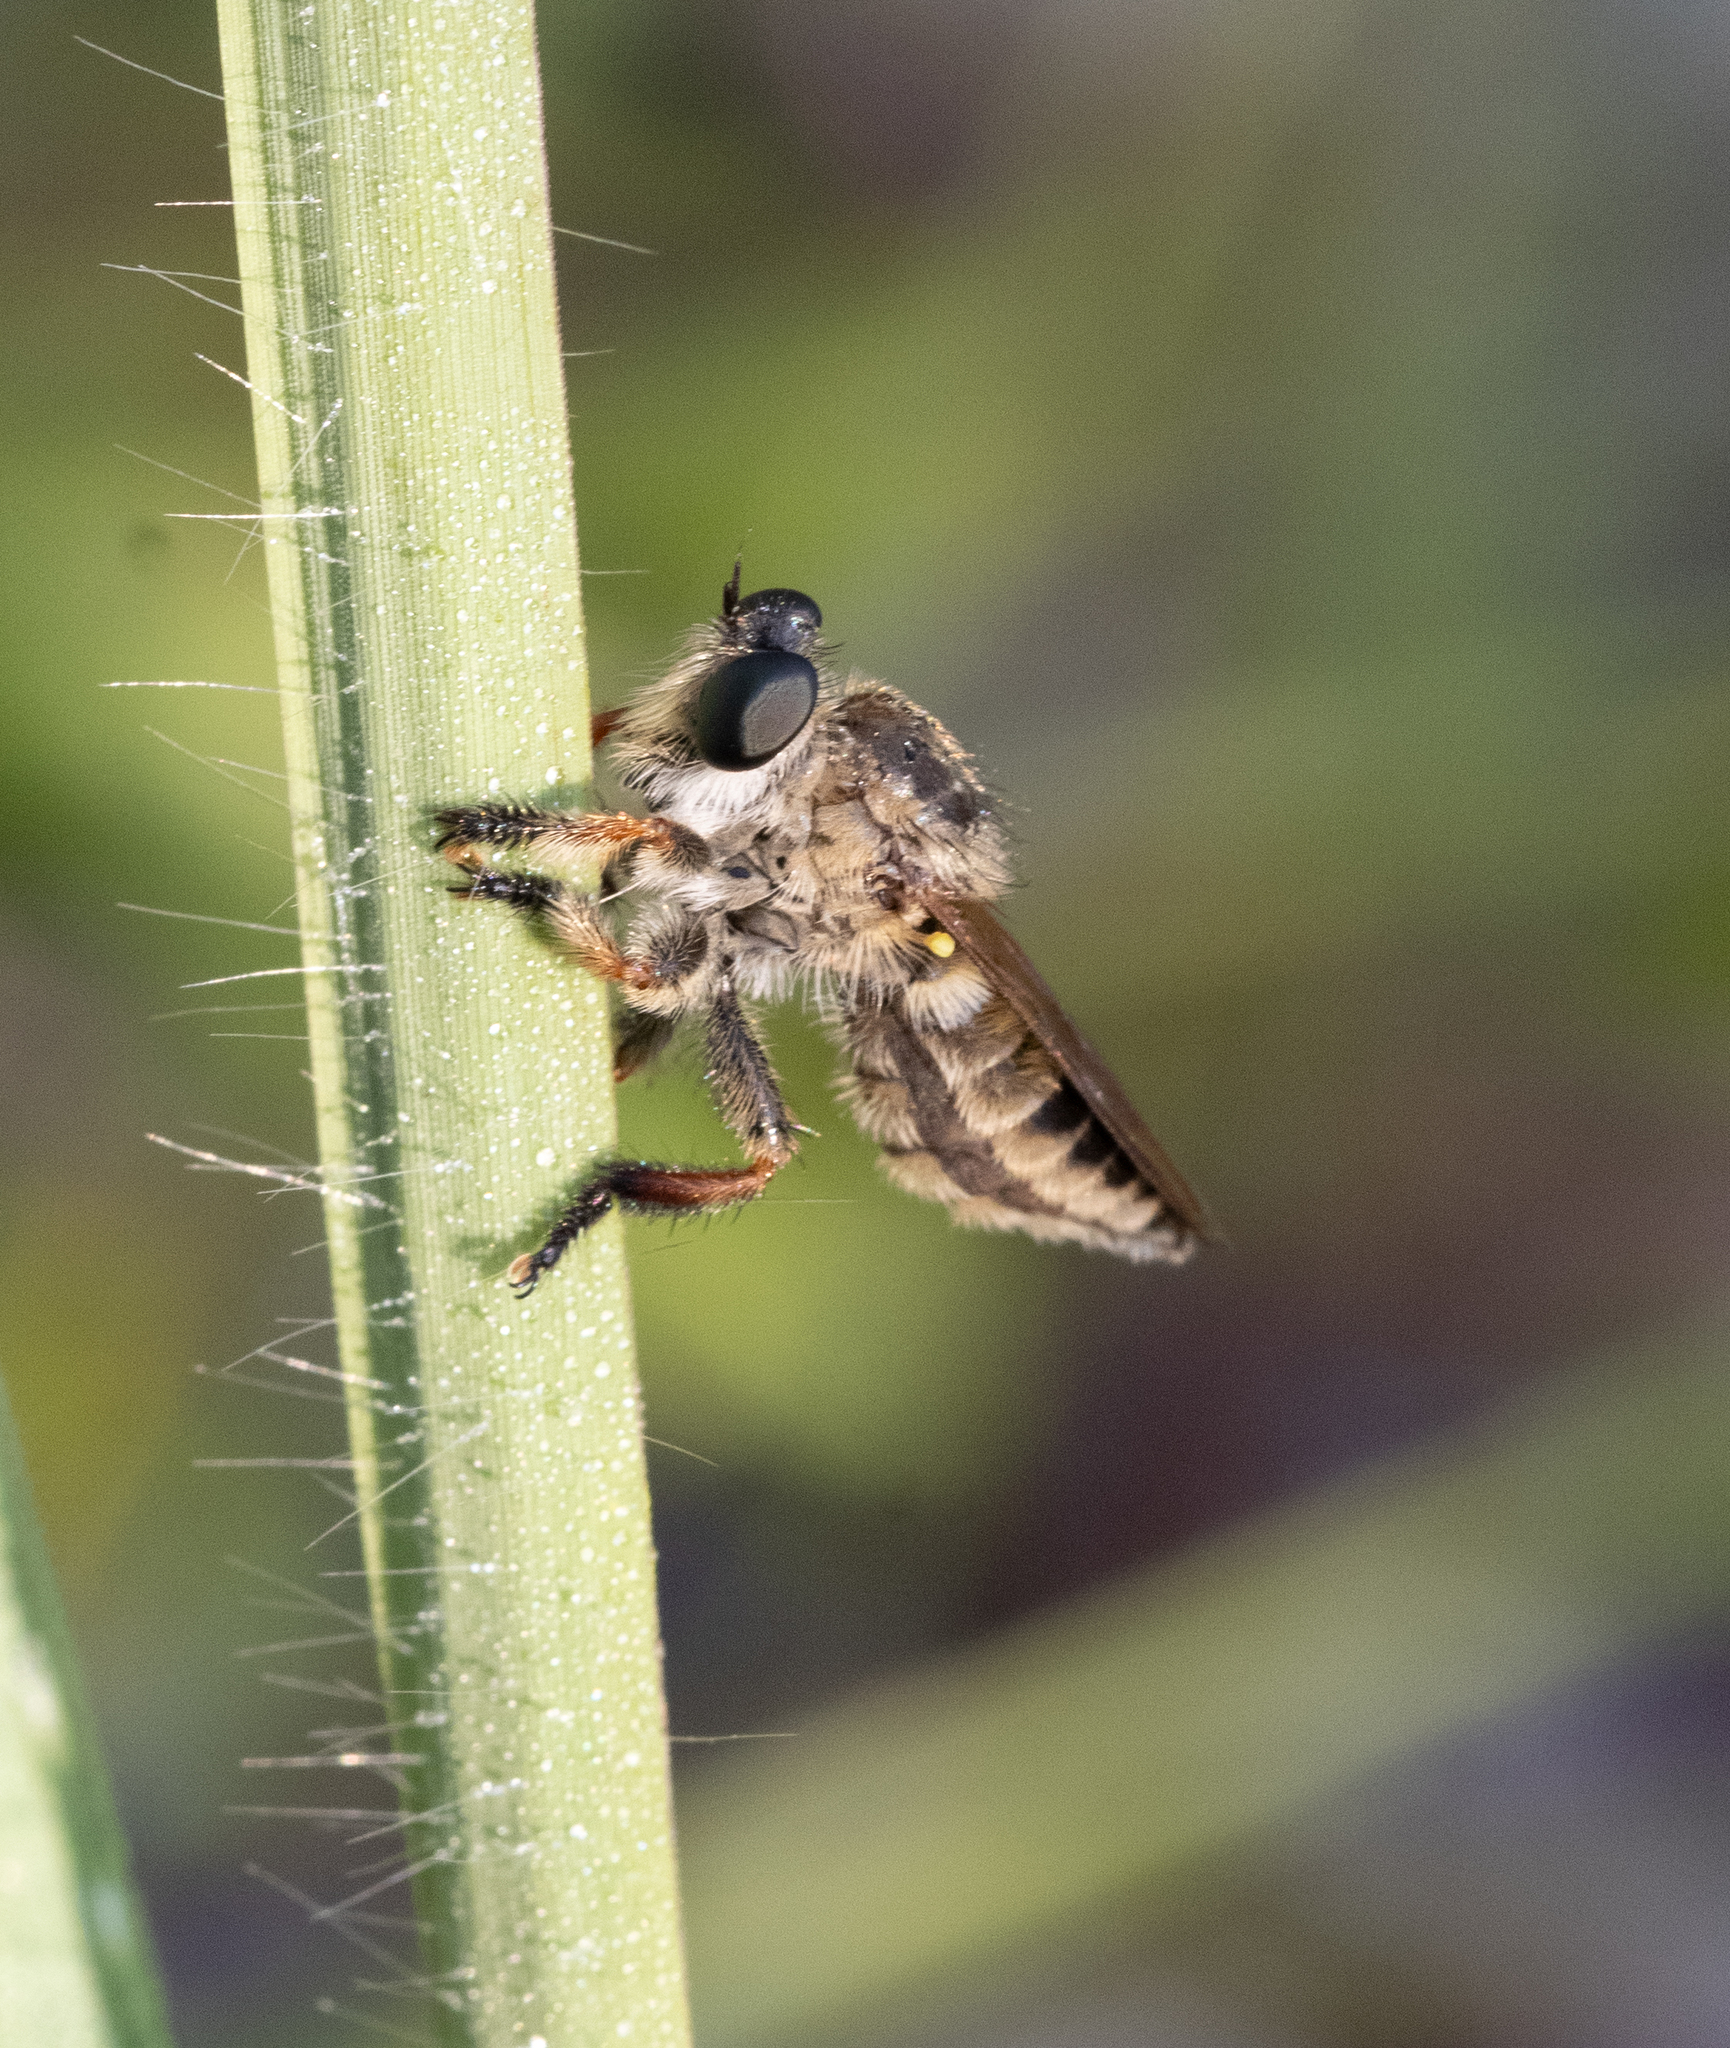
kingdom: Animalia
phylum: Arthropoda
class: Insecta
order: Diptera
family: Asilidae
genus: Megaphorus
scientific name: Megaphorus minutus
